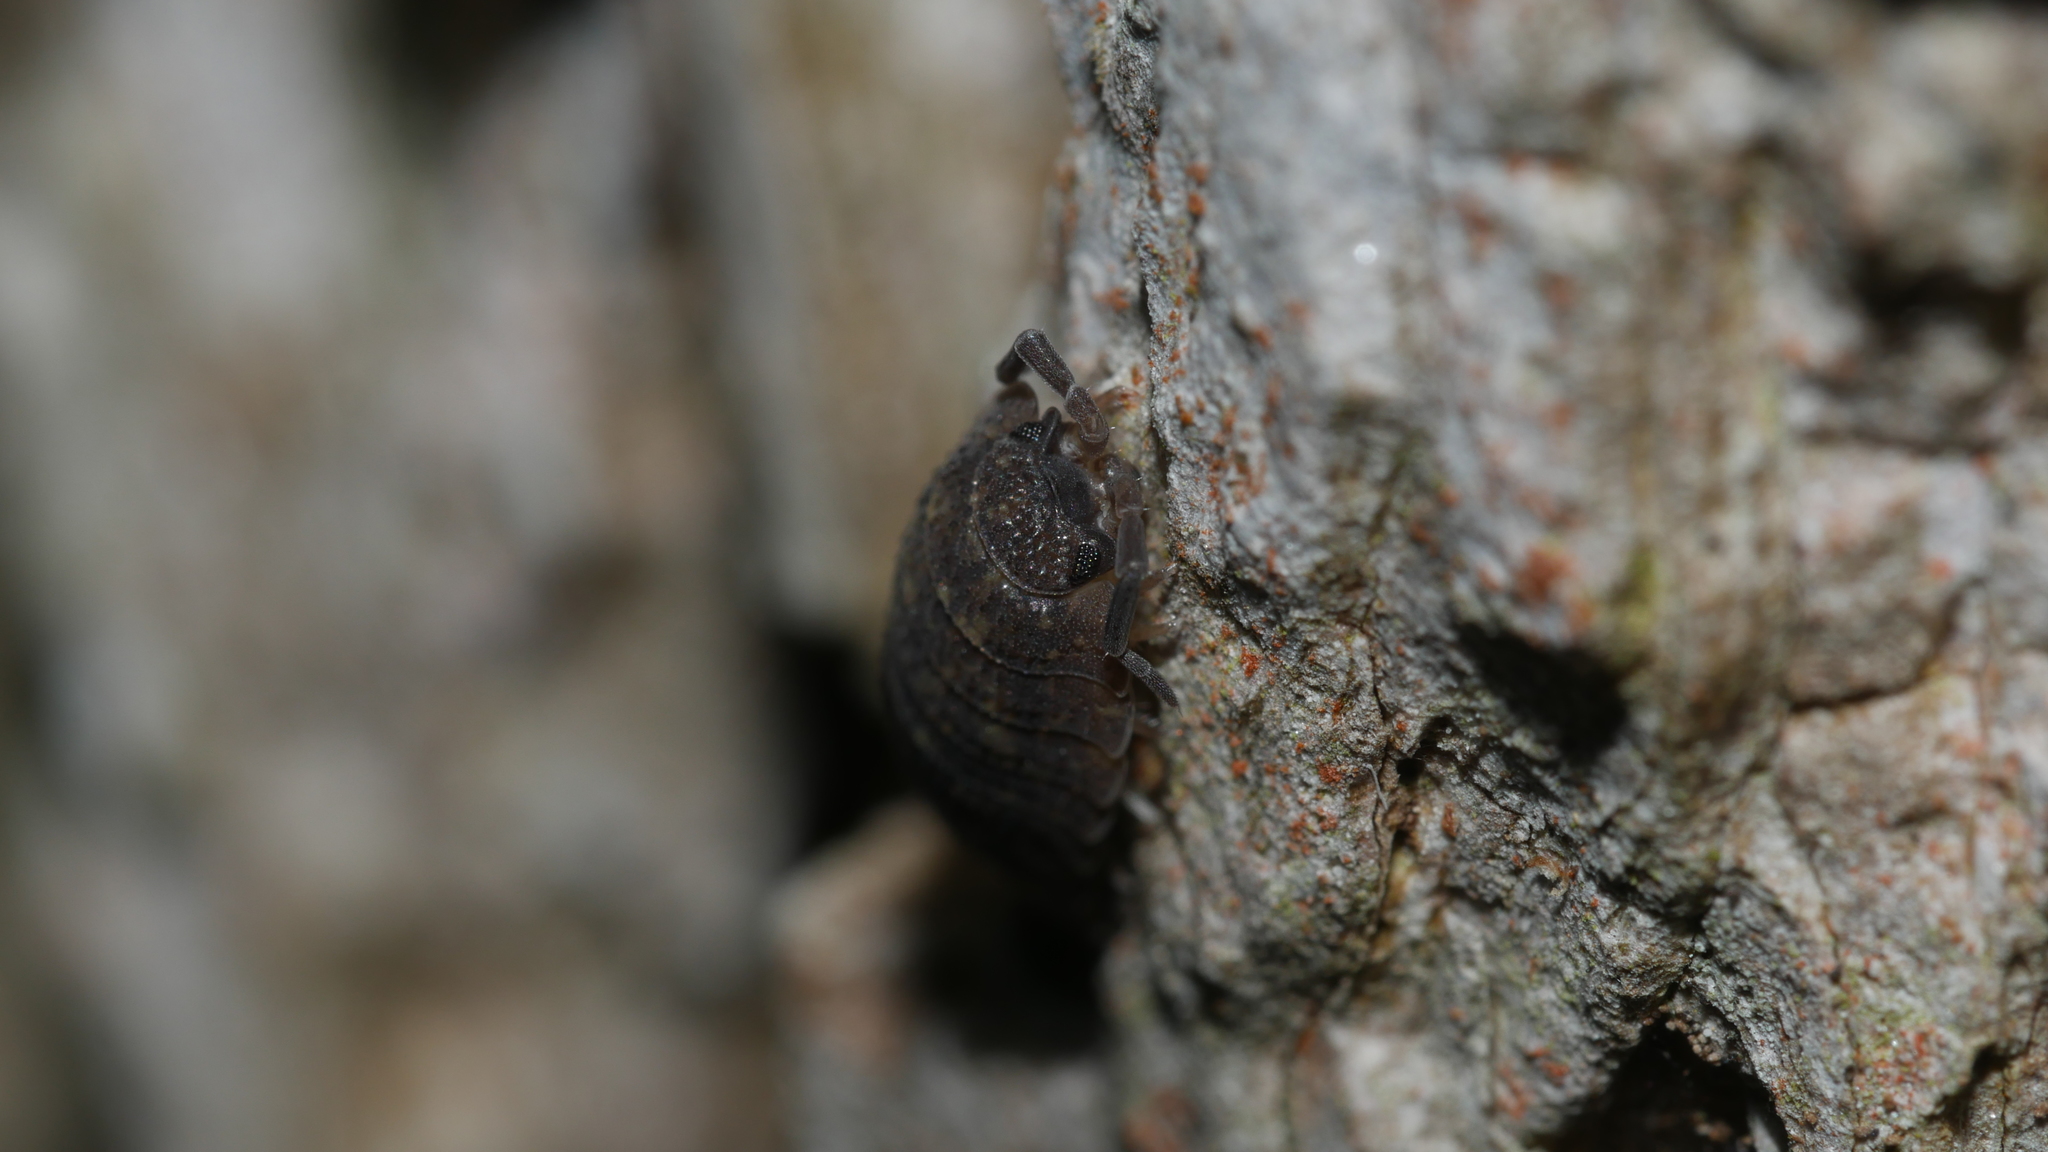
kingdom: Animalia
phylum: Arthropoda
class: Malacostraca
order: Isopoda
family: Porcellionidae
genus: Porcellio
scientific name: Porcellio scaber
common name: Common rough woodlouse
